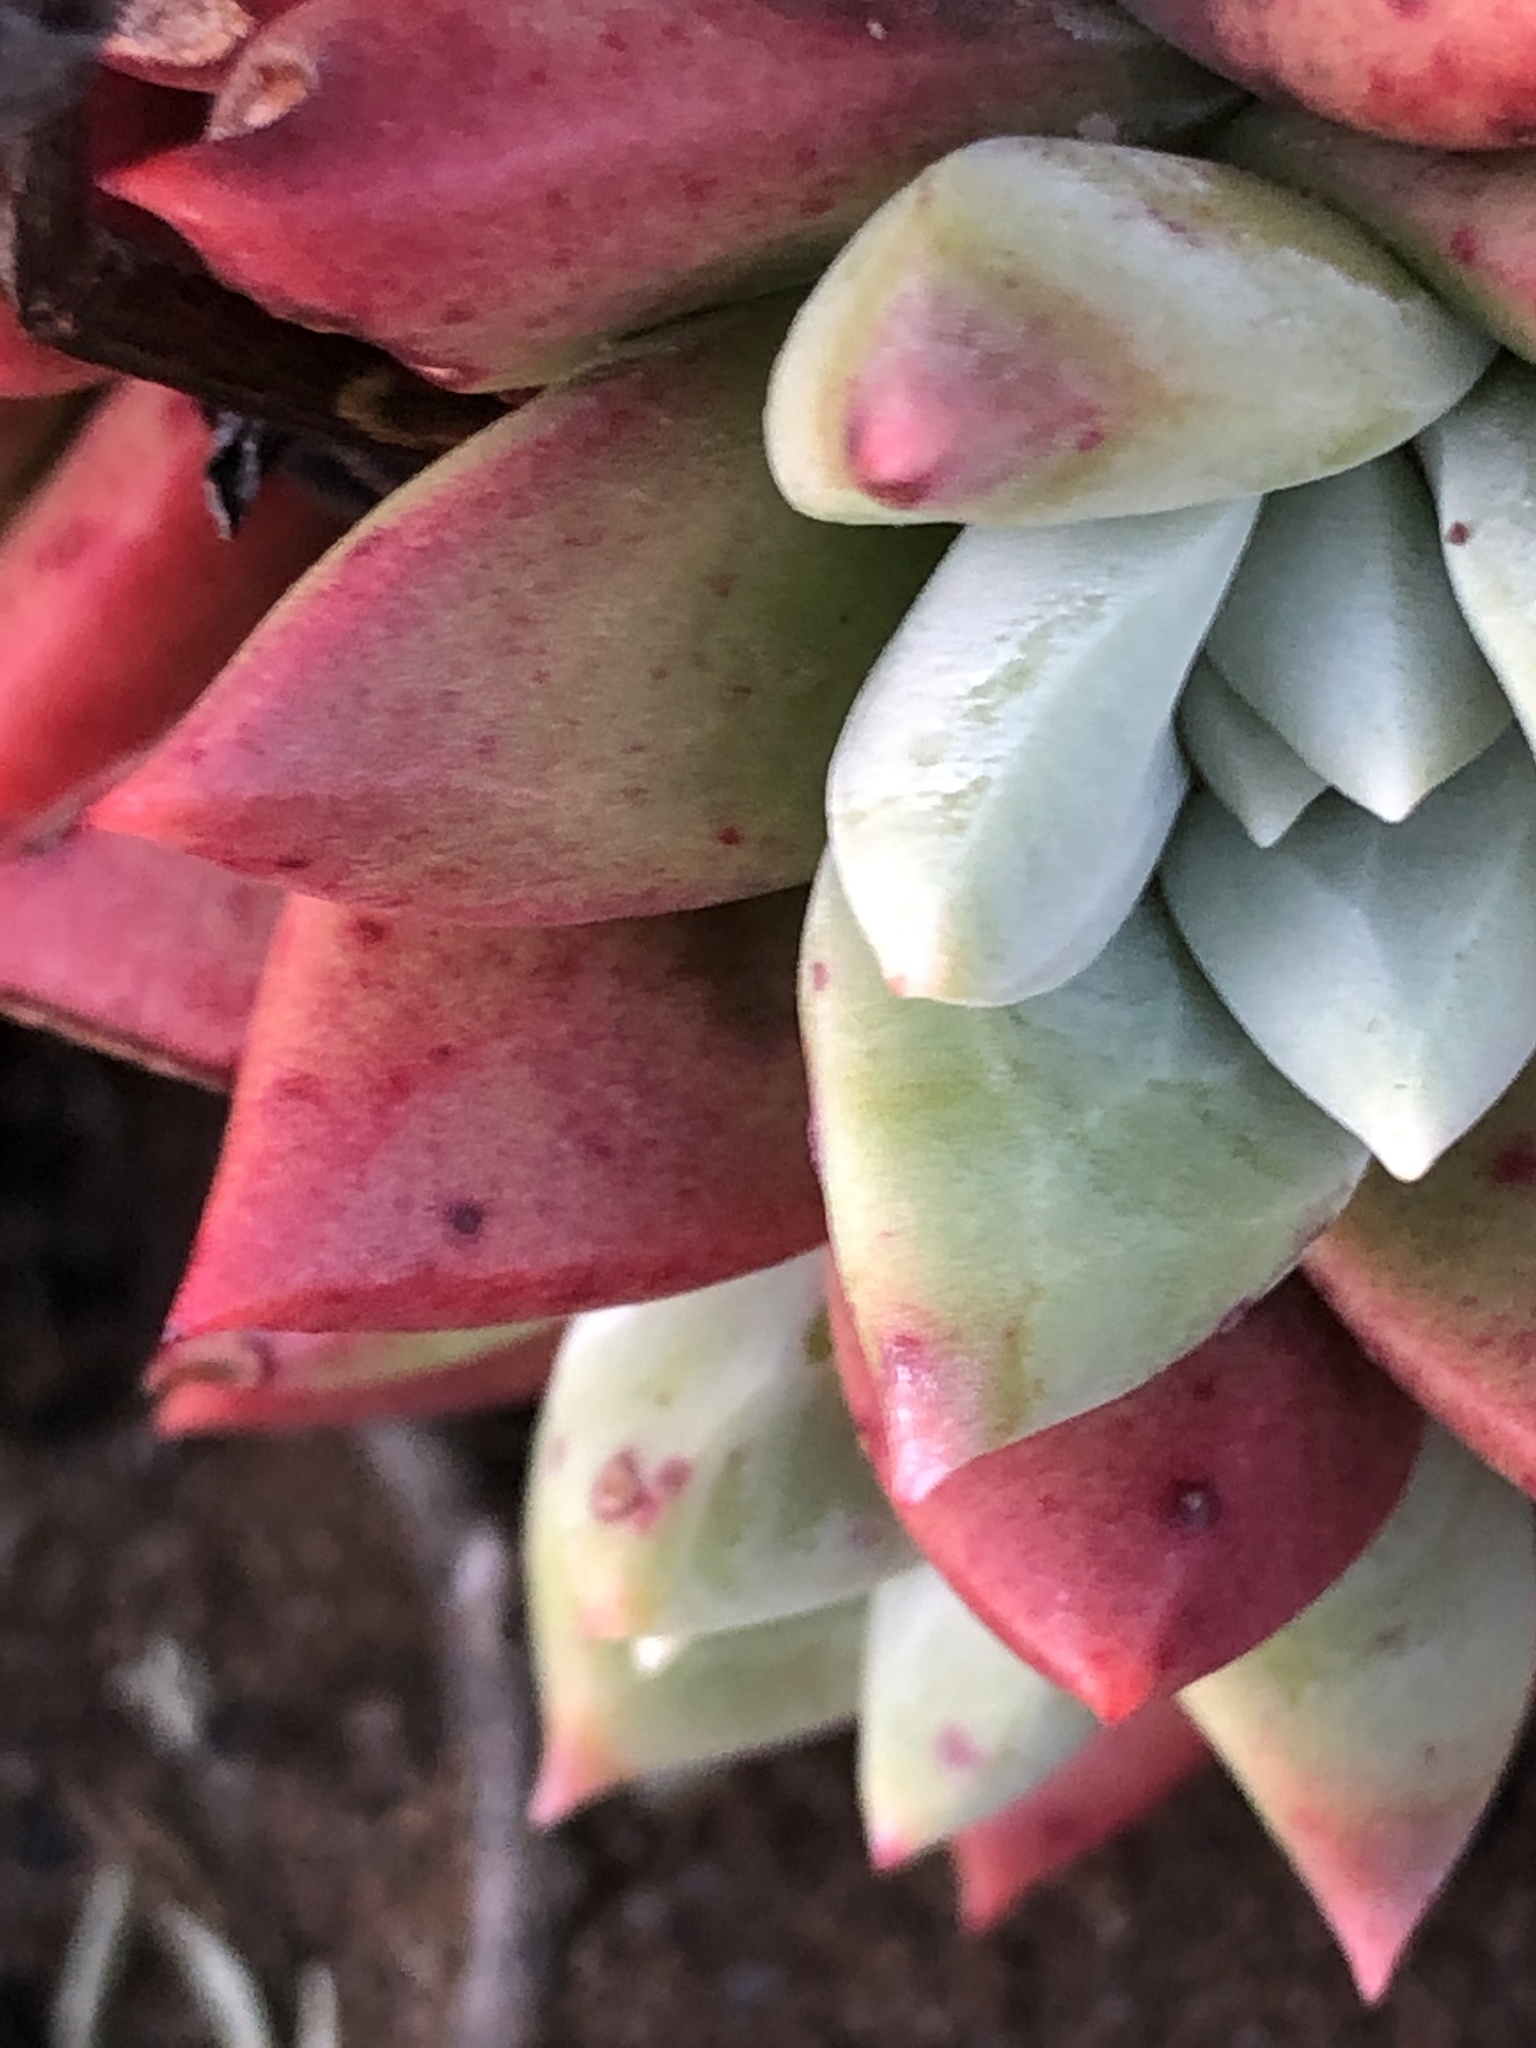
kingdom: Plantae
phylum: Tracheophyta
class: Magnoliopsida
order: Saxifragales
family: Crassulaceae
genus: Dudleya
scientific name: Dudleya farinosa
